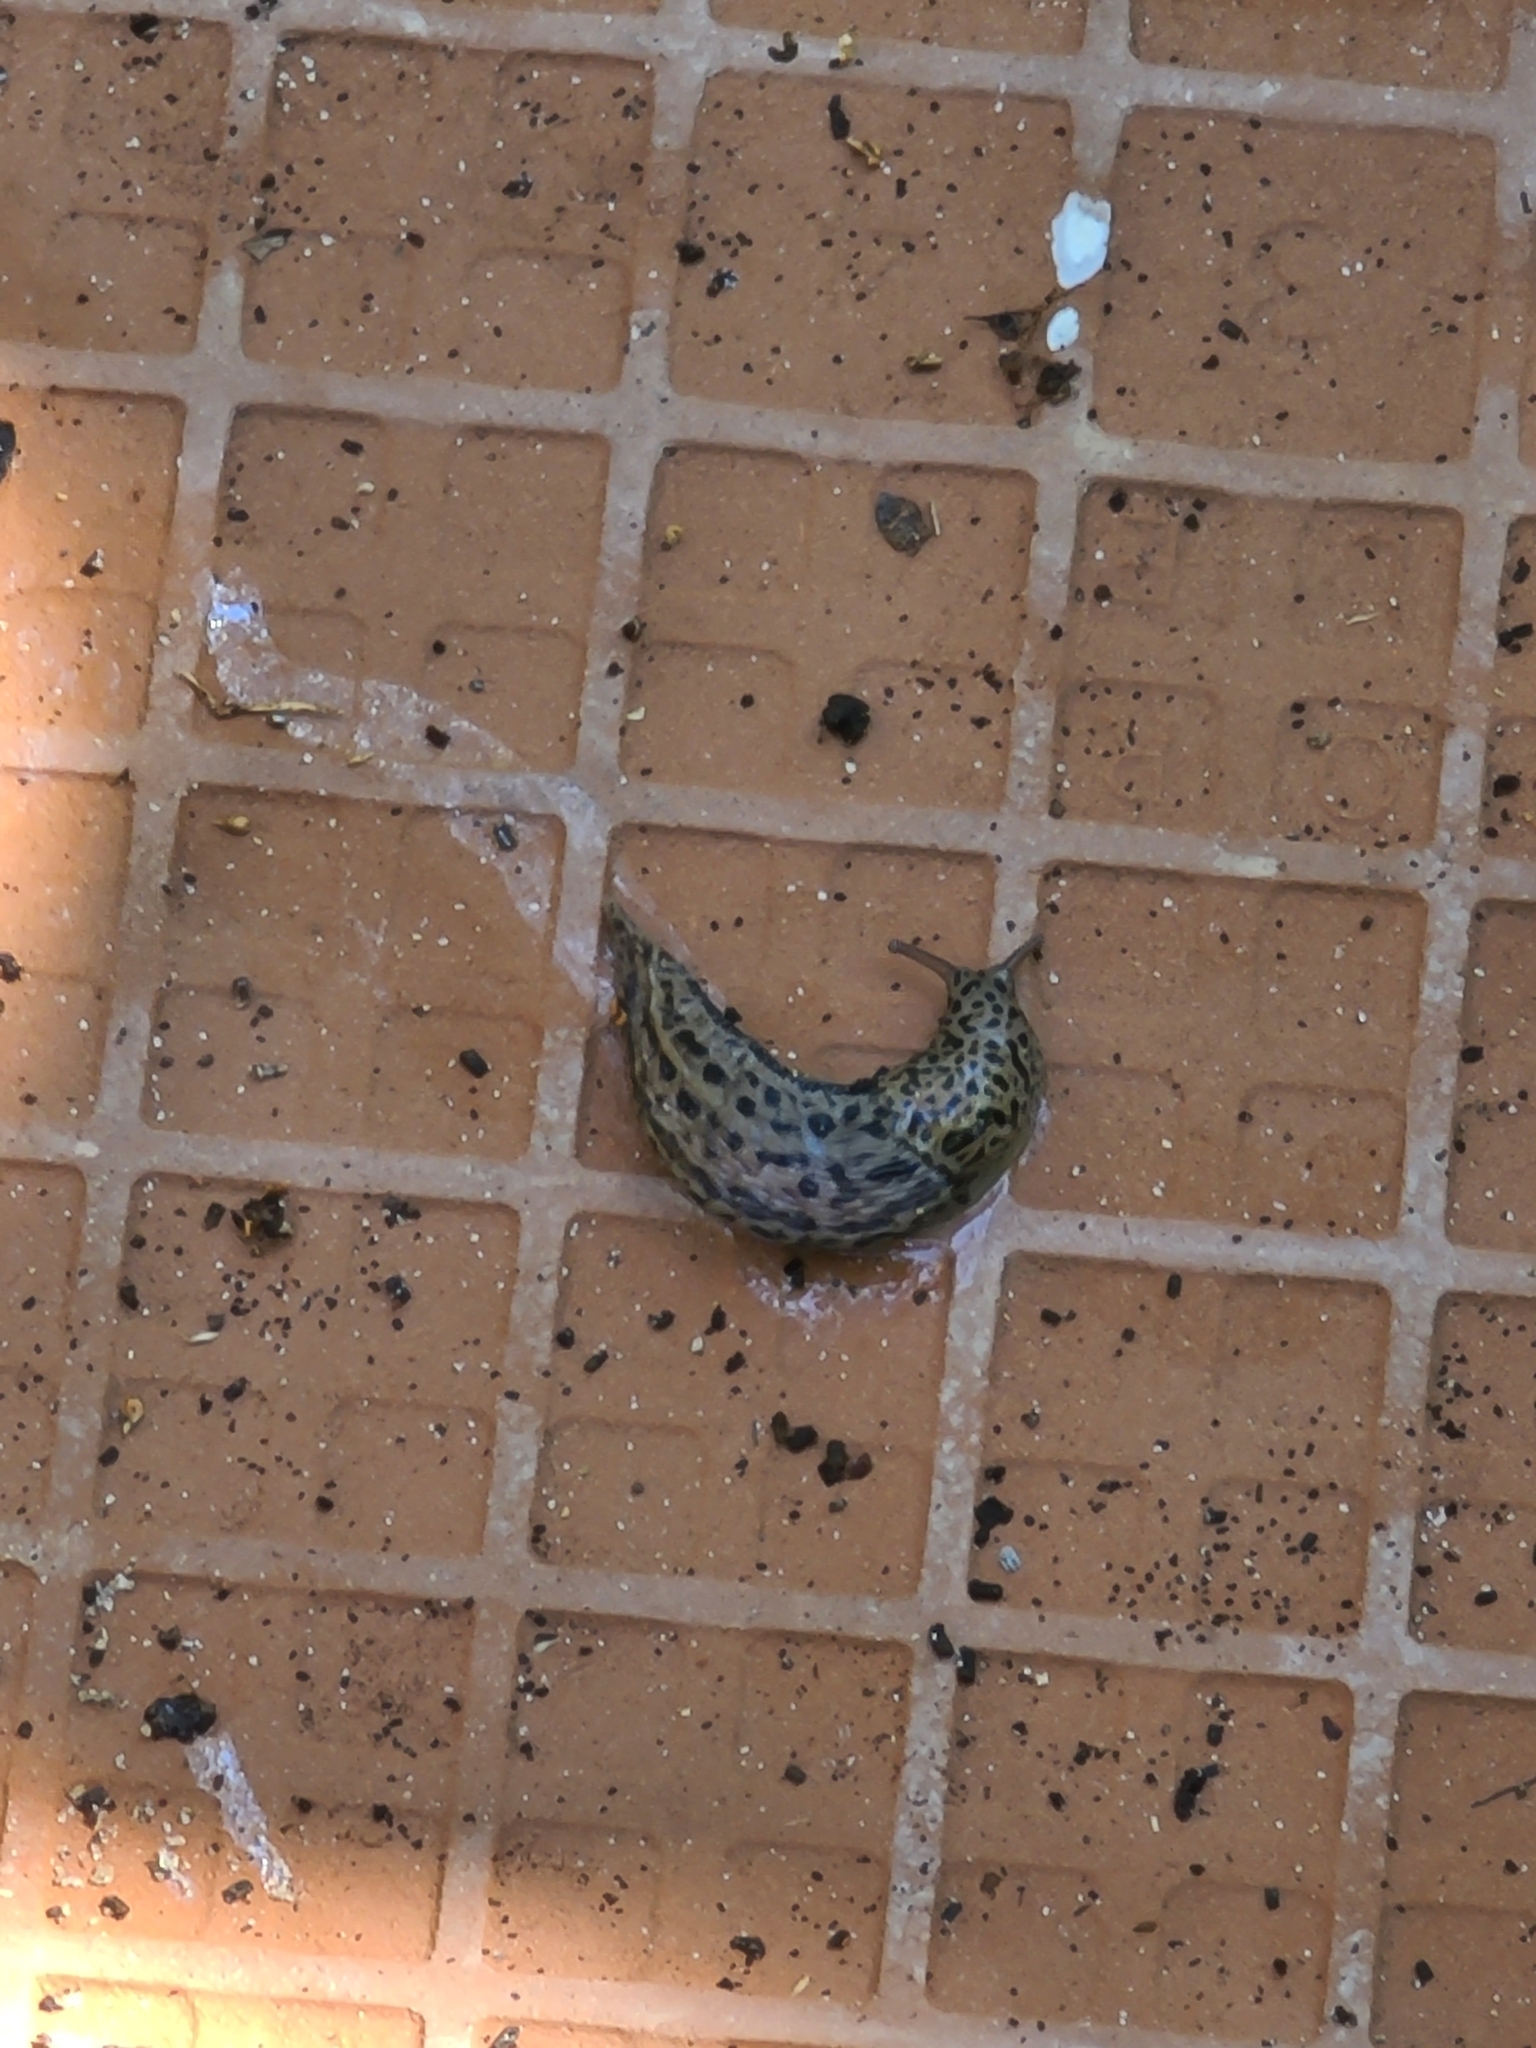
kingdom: Animalia
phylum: Mollusca
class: Gastropoda
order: Stylommatophora
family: Limacidae
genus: Limax
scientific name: Limax maximus
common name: Great grey slug
